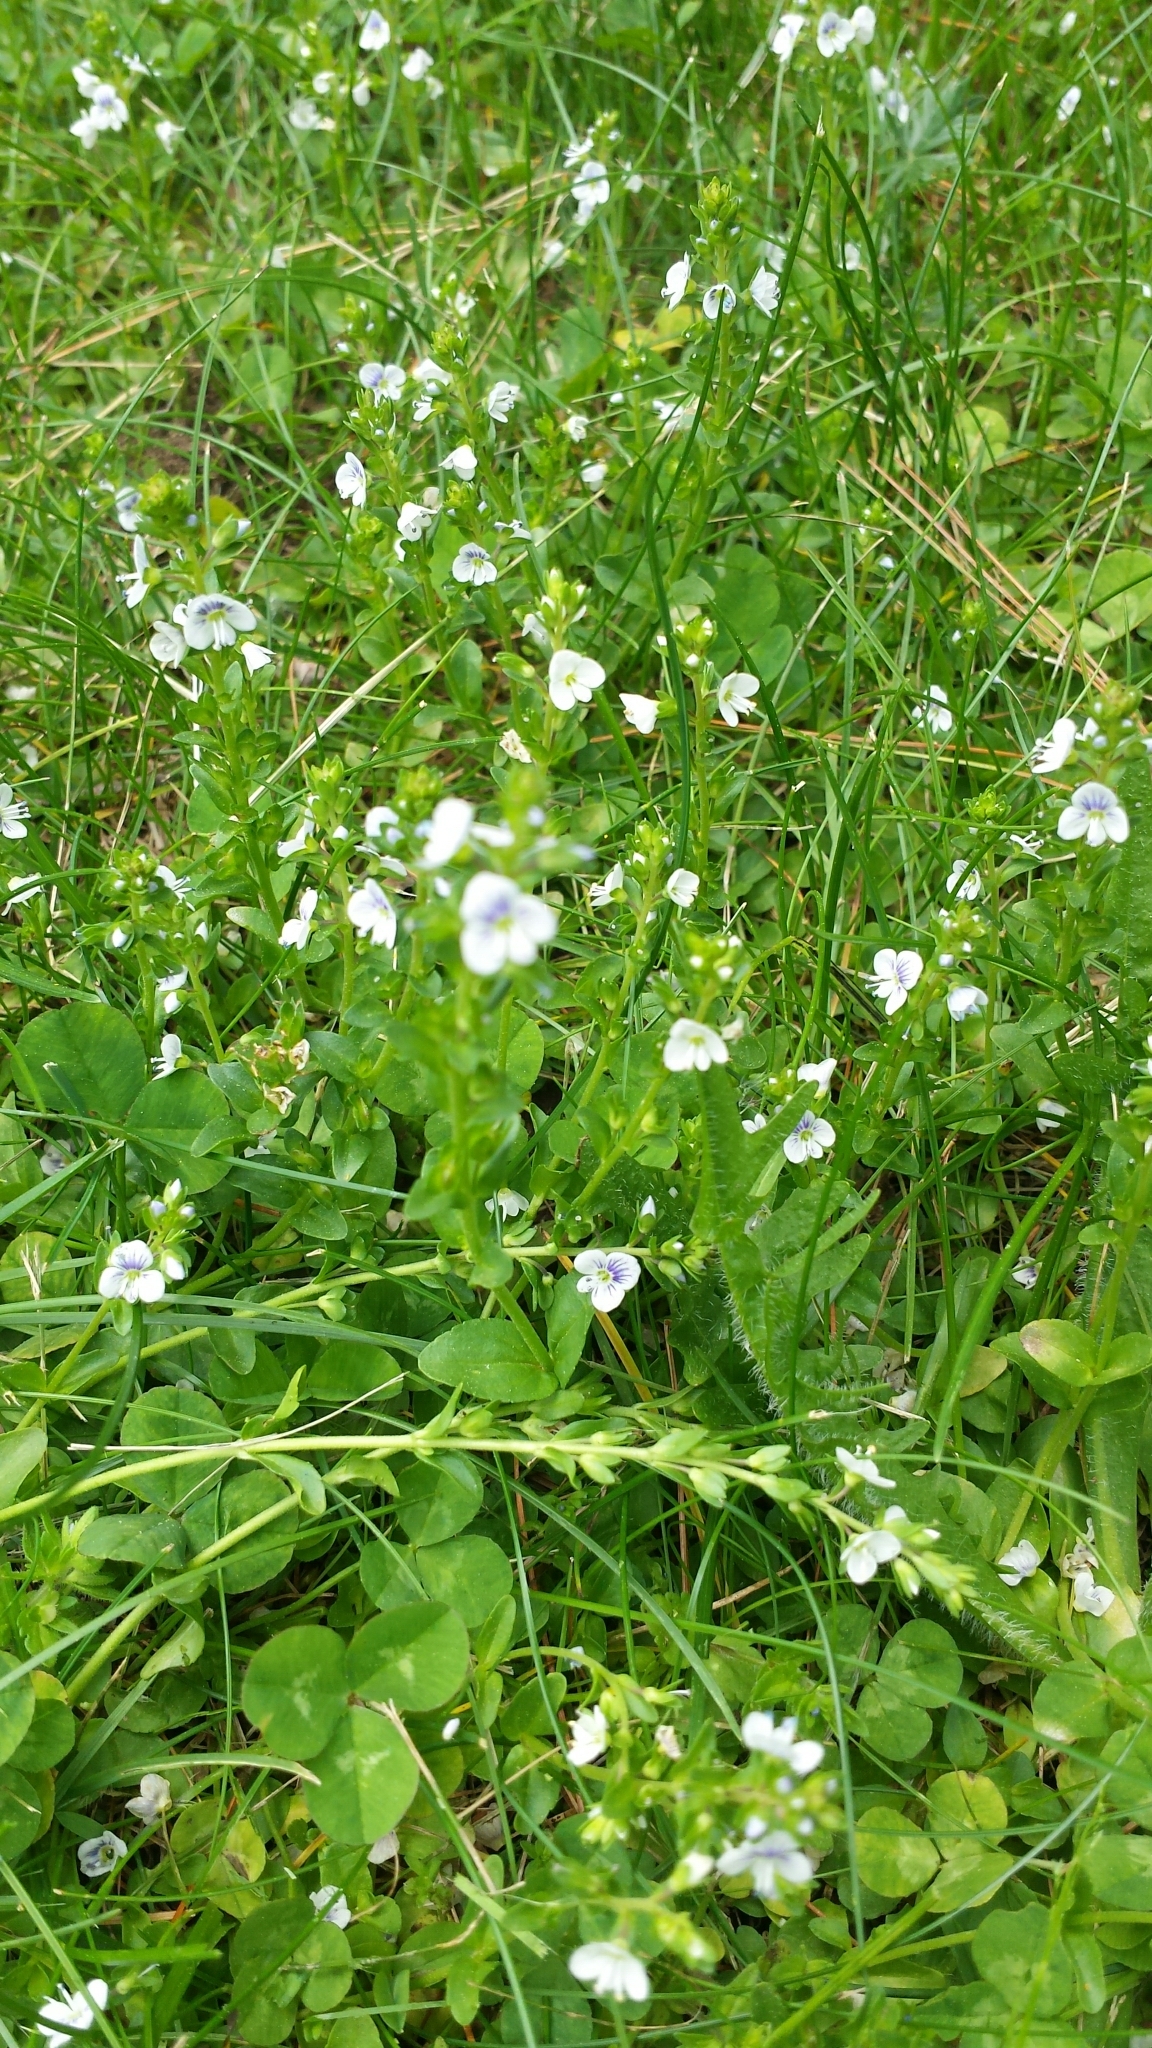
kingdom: Plantae
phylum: Tracheophyta
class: Magnoliopsida
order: Lamiales
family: Plantaginaceae
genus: Veronica
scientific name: Veronica serpyllifolia
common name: Thyme-leaved speedwell
